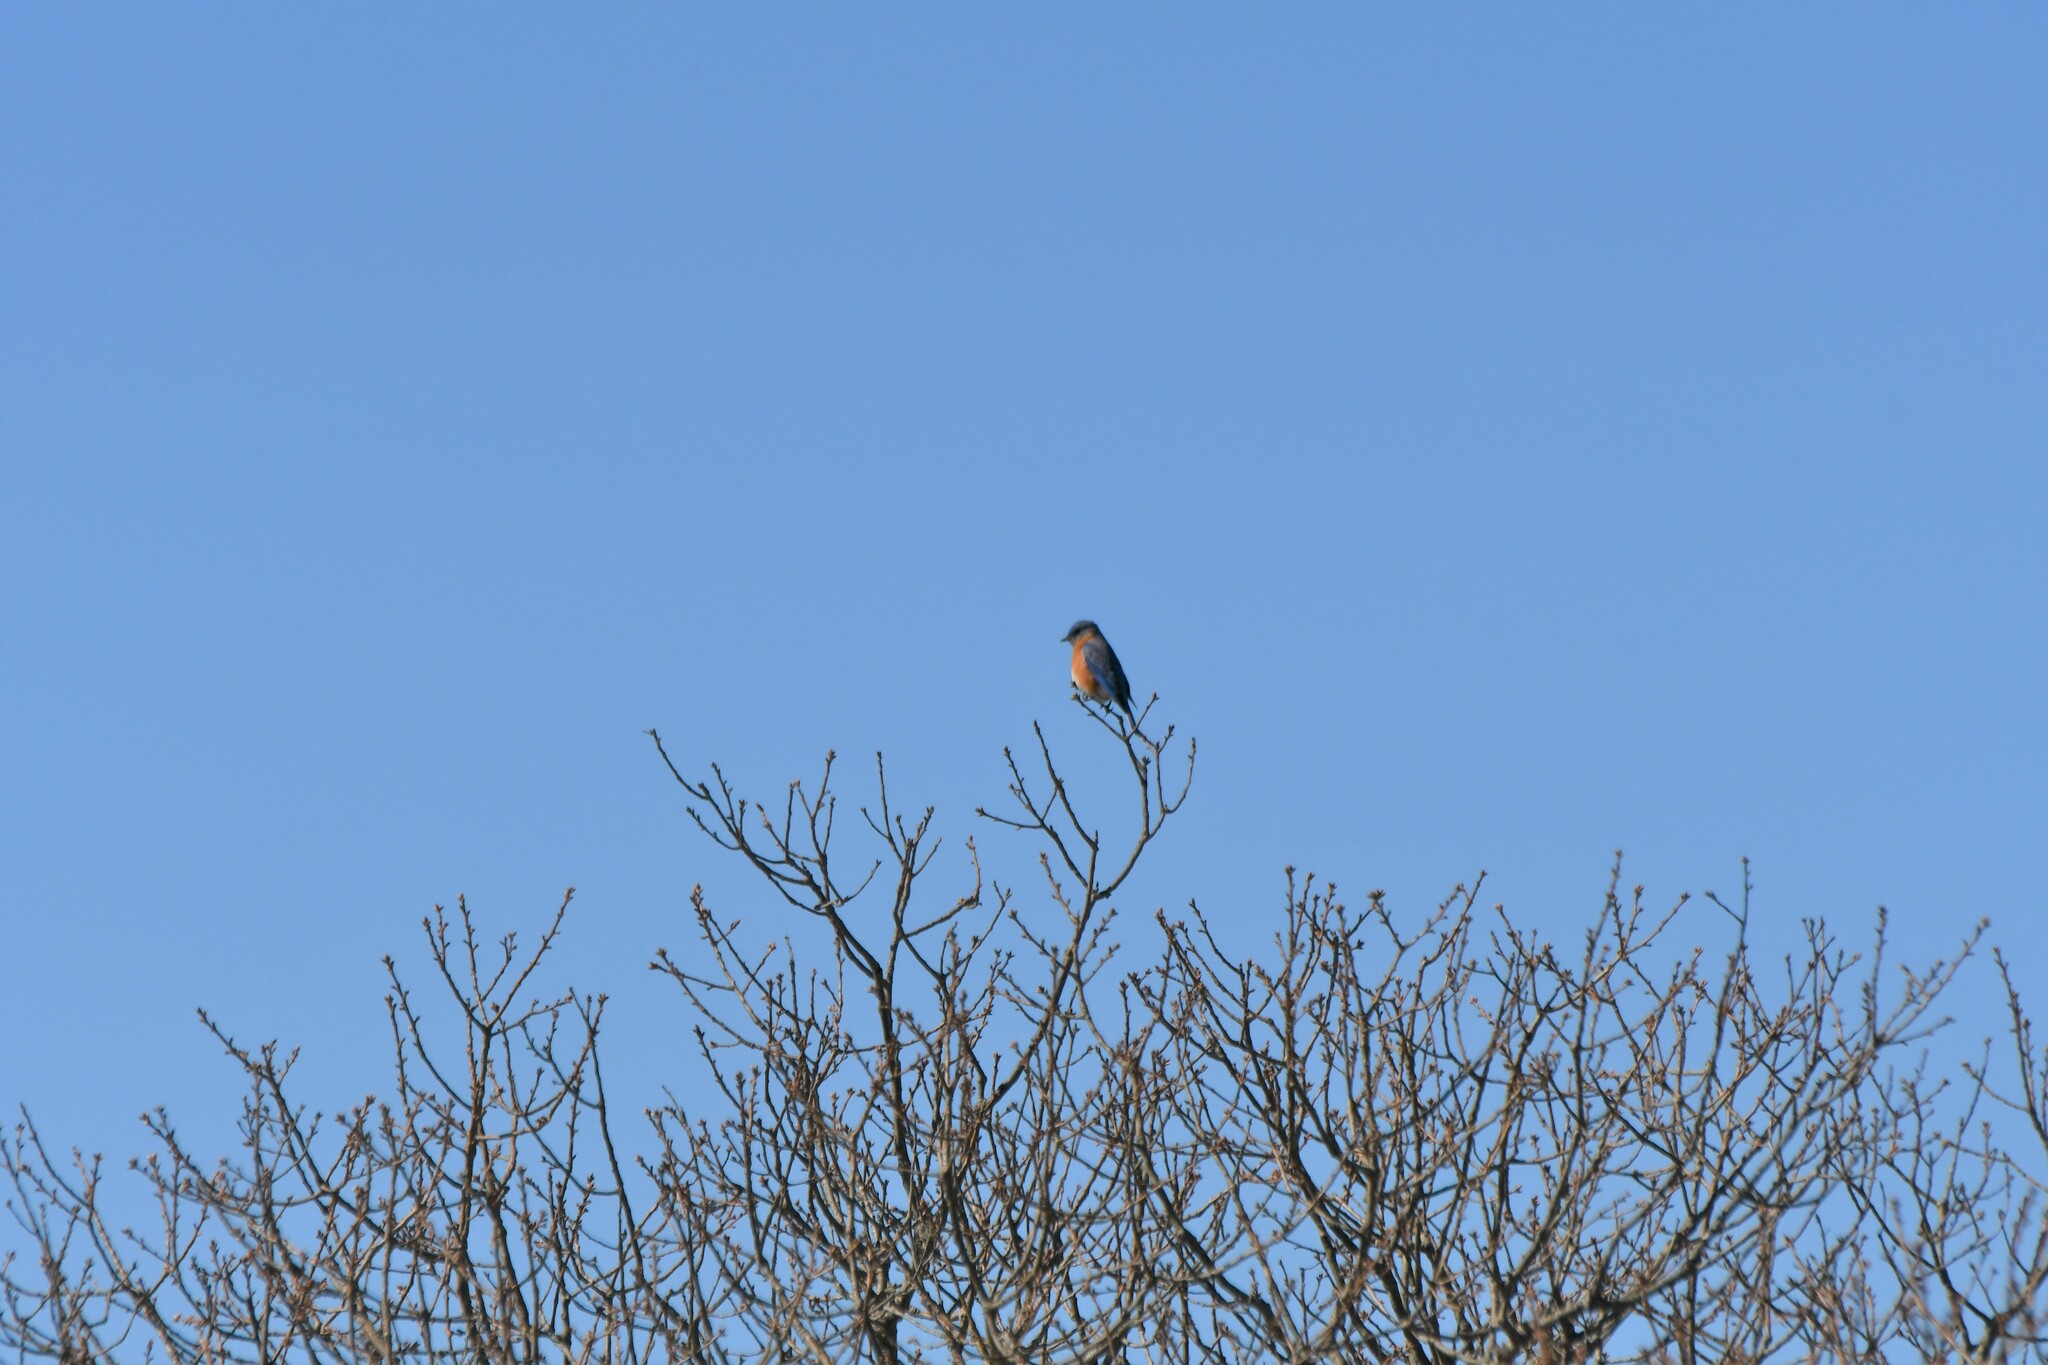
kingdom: Animalia
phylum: Chordata
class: Aves
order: Passeriformes
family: Turdidae
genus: Sialia
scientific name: Sialia sialis
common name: Eastern bluebird
